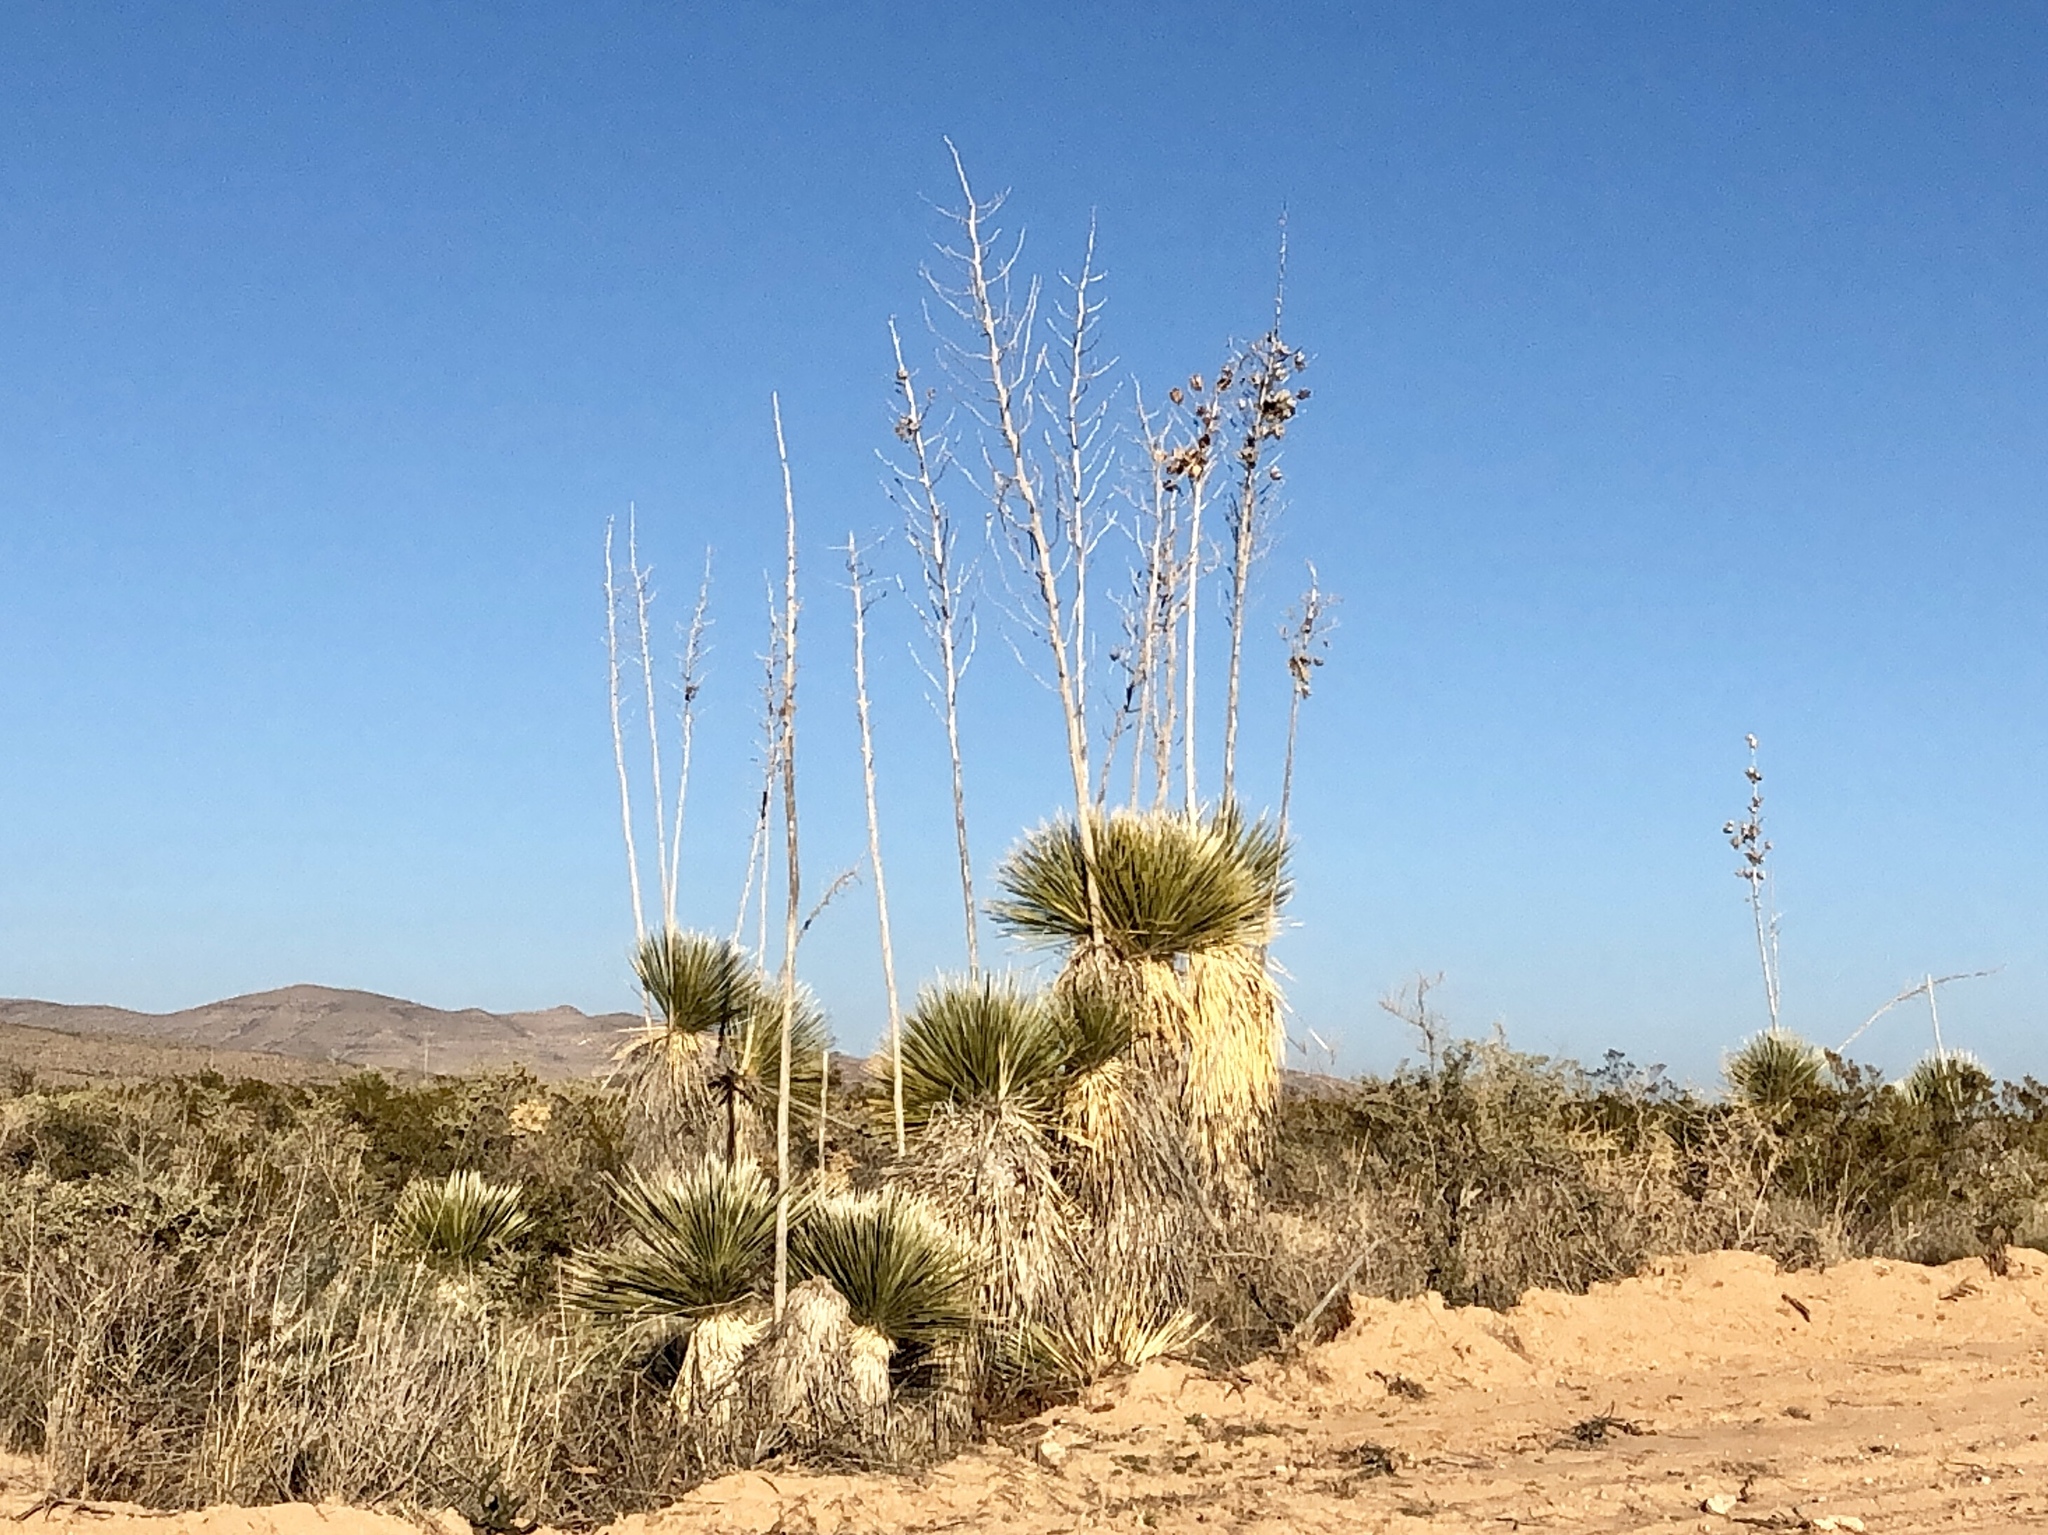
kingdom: Plantae
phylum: Tracheophyta
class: Liliopsida
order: Asparagales
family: Asparagaceae
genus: Yucca
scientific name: Yucca elata
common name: Palmella
